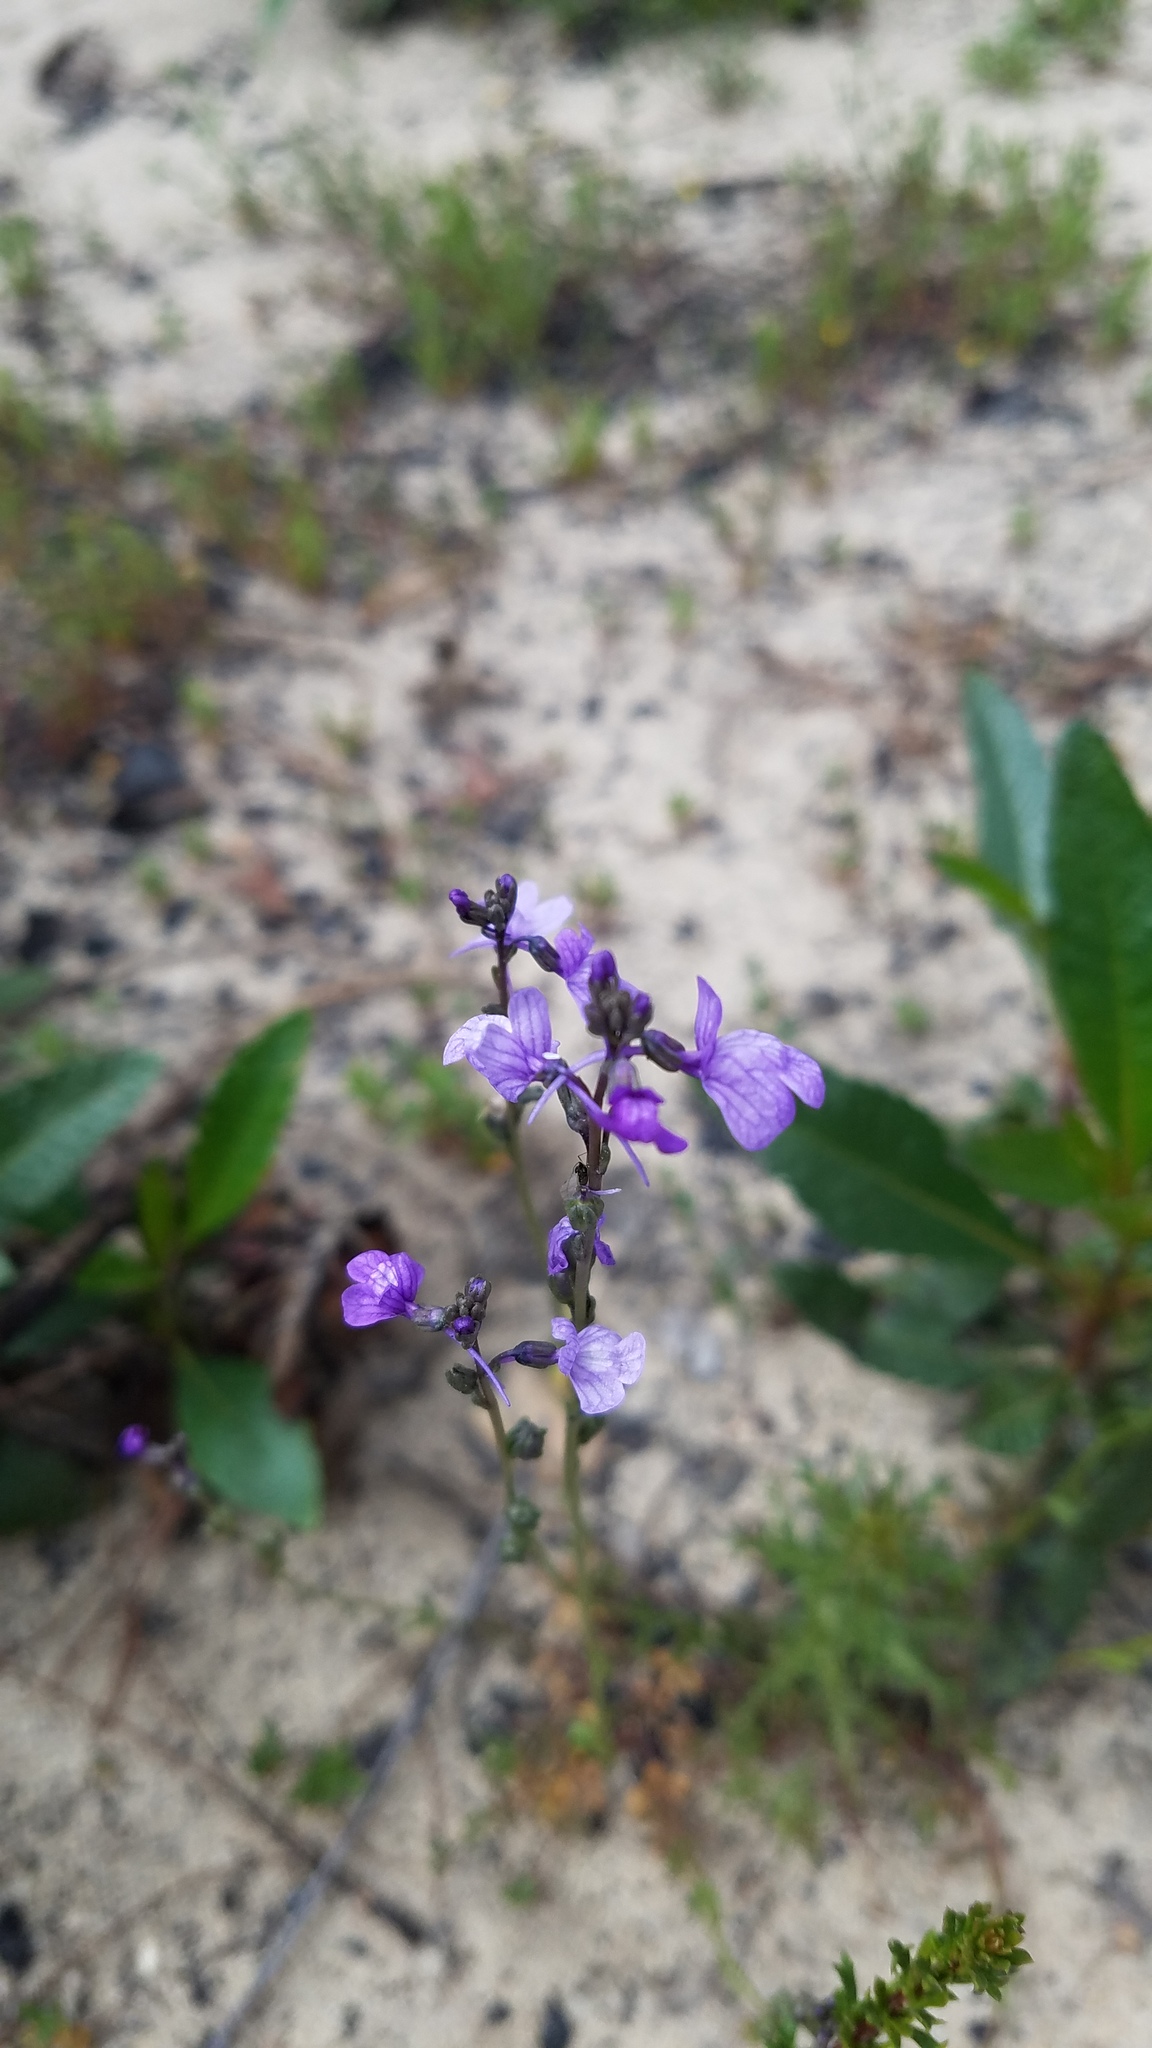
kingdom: Plantae
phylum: Tracheophyta
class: Magnoliopsida
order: Lamiales
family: Plantaginaceae
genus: Nuttallanthus
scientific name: Nuttallanthus texanus
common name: Texas toadflax
